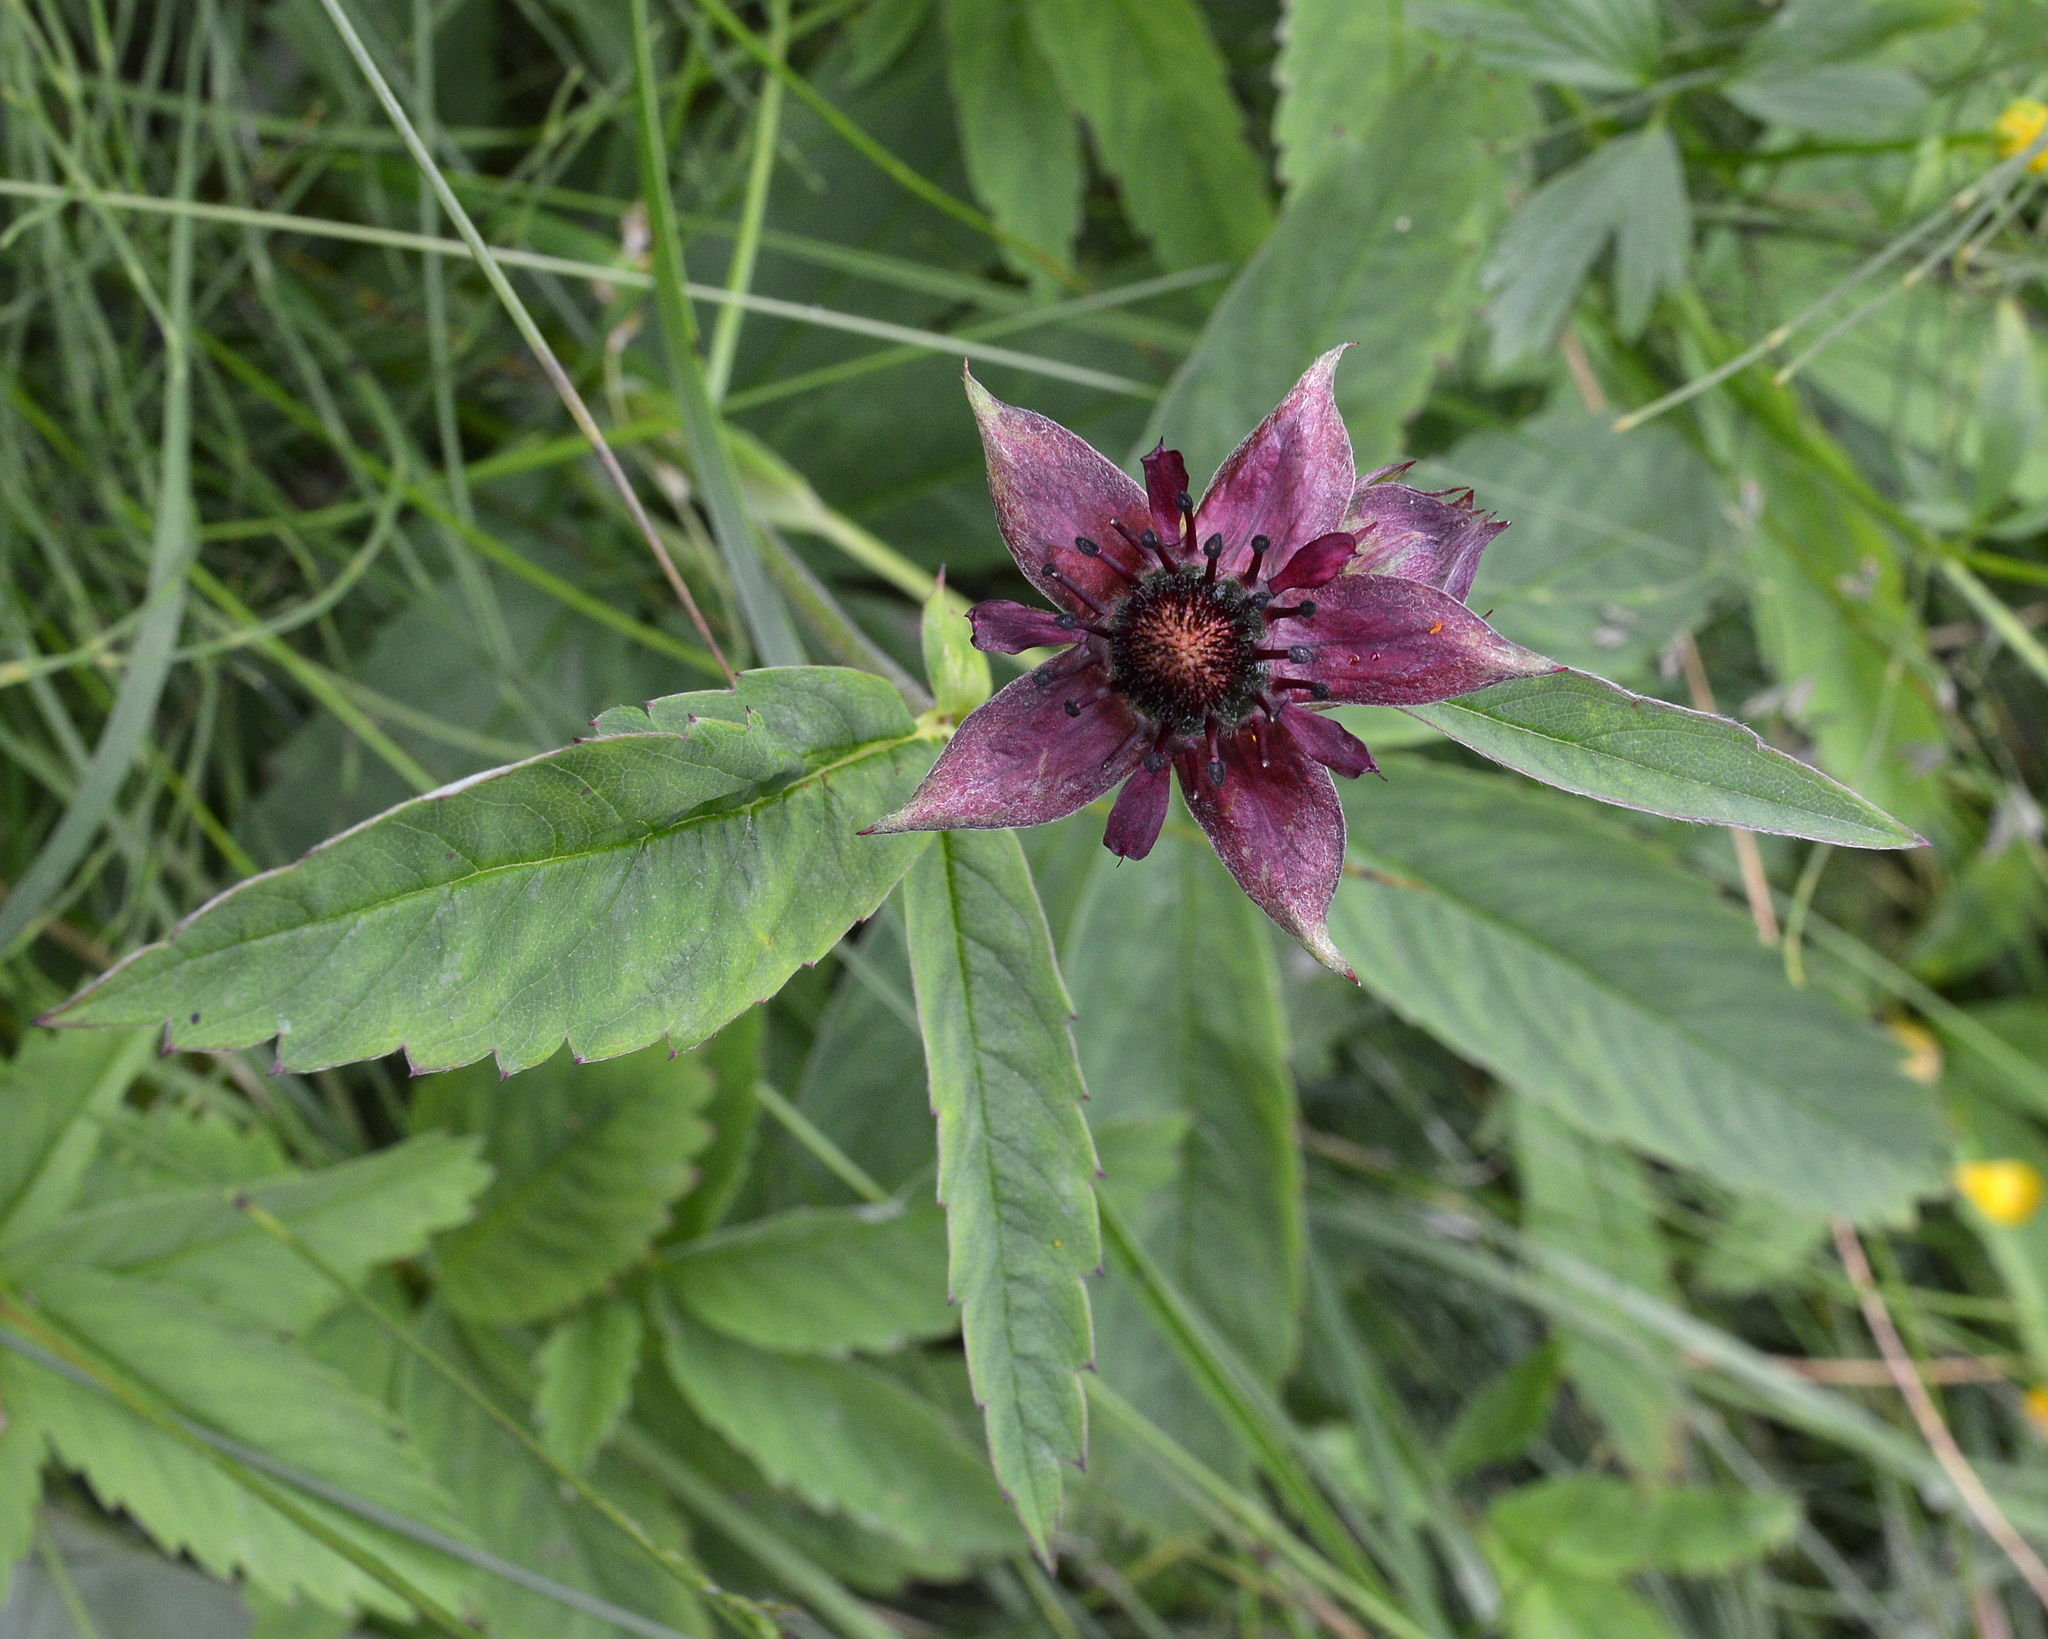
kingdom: Plantae
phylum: Tracheophyta
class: Magnoliopsida
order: Rosales
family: Rosaceae
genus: Comarum
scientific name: Comarum palustre
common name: Marsh cinquefoil
